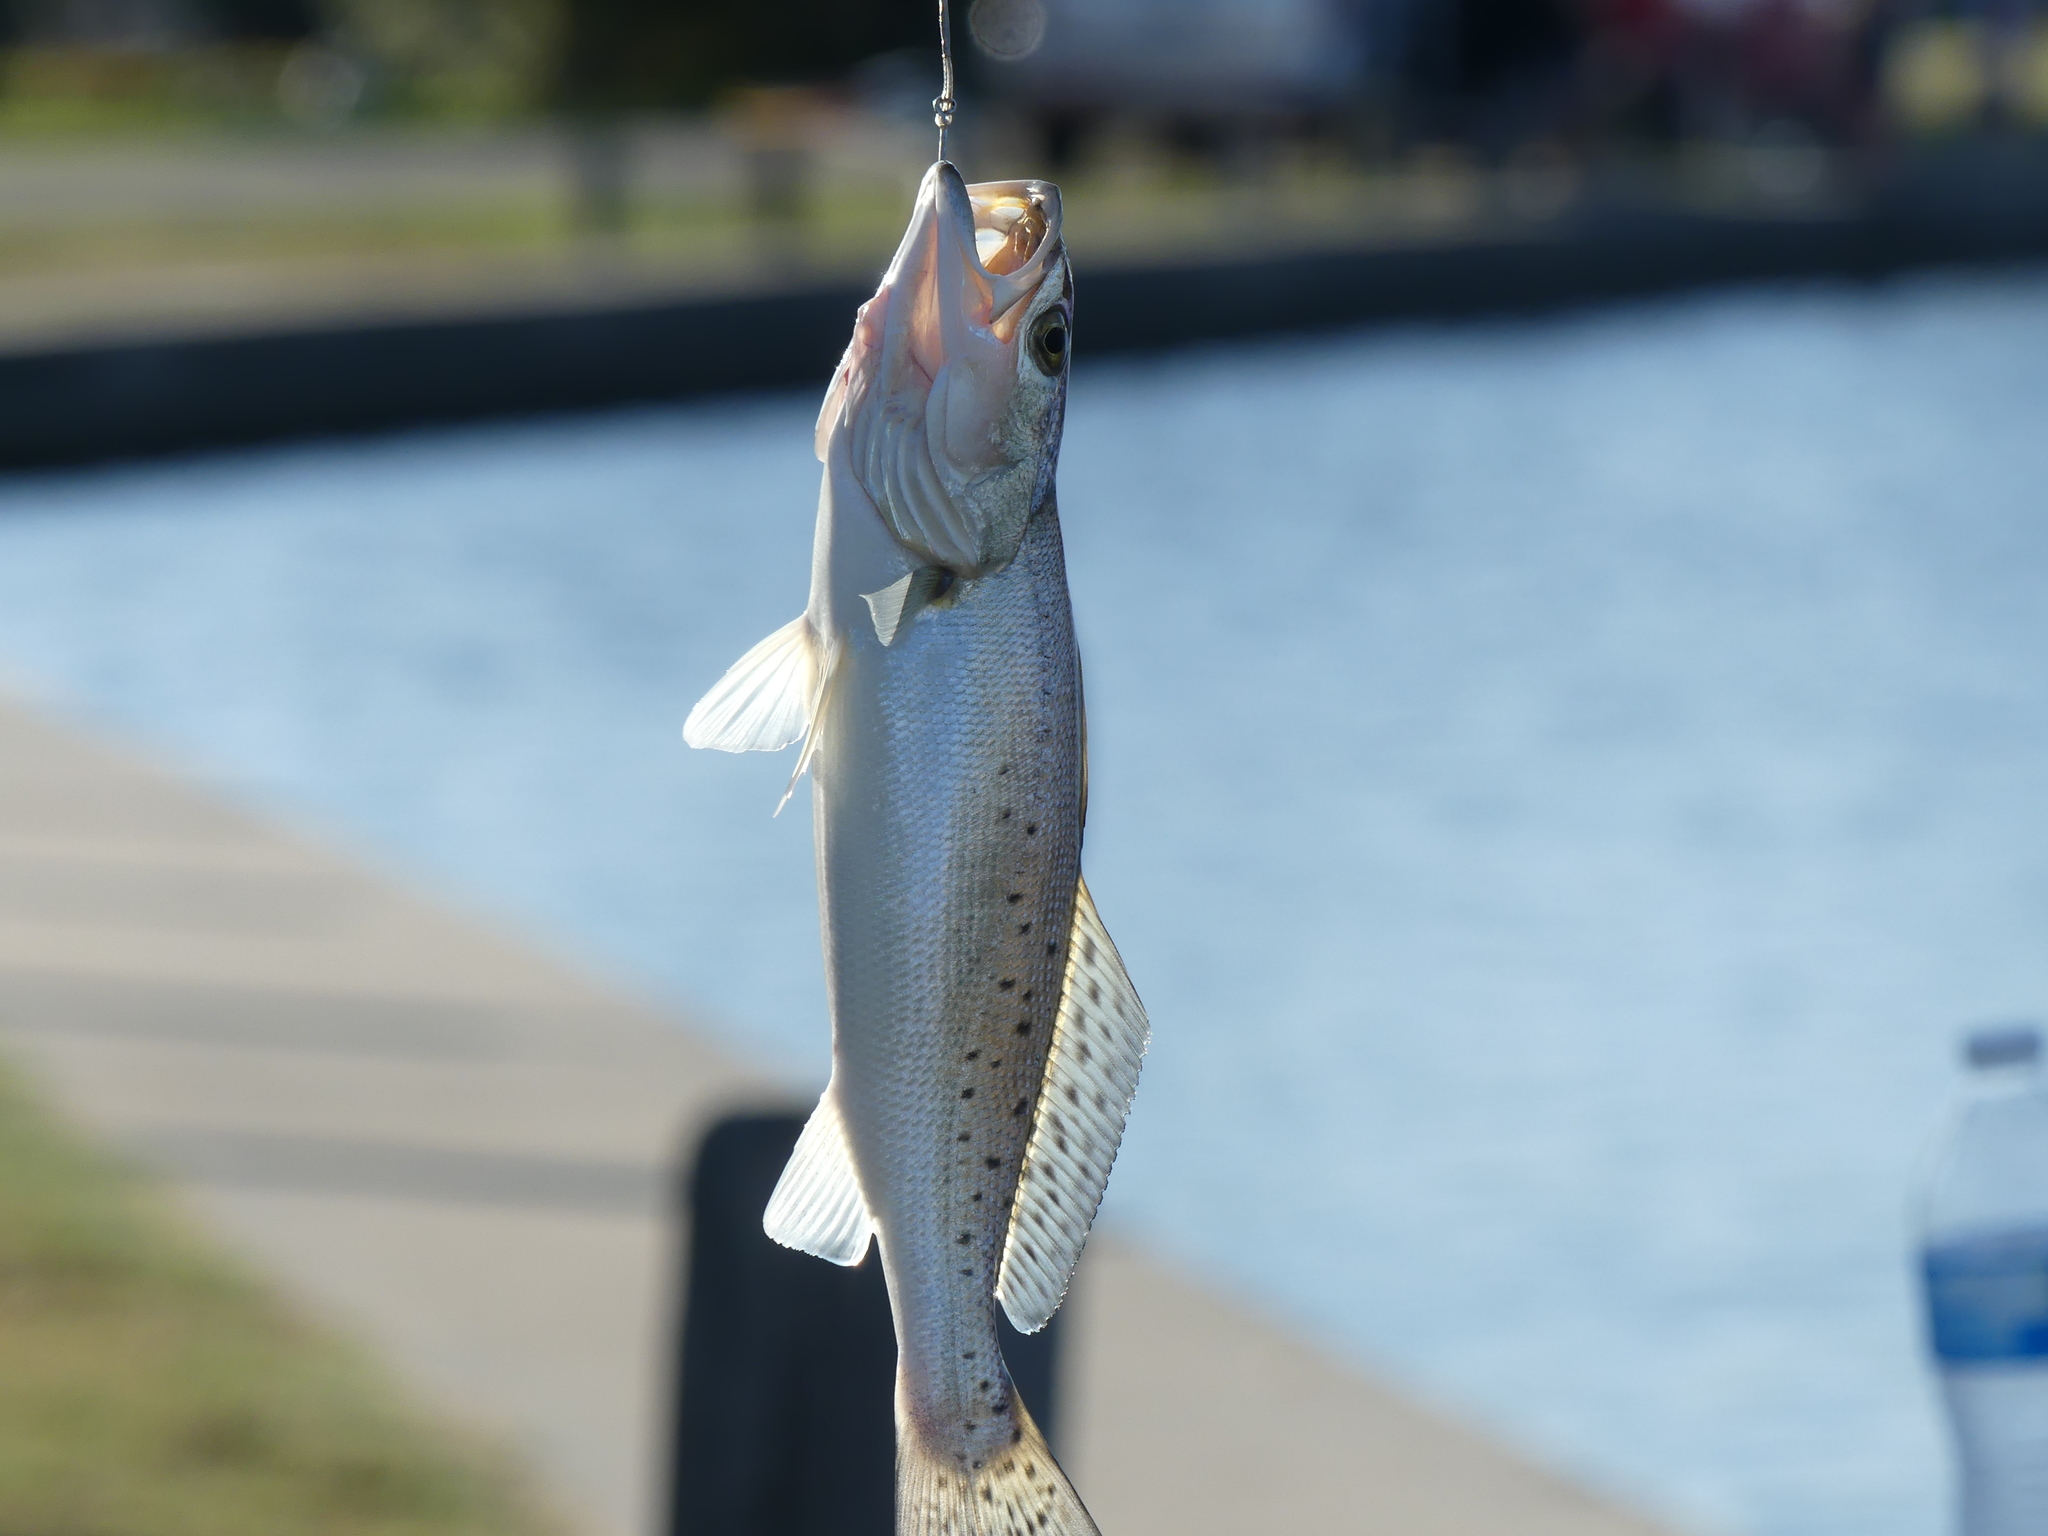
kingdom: Animalia
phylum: Chordata
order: Perciformes
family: Sciaenidae
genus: Cynoscion
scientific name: Cynoscion nebulosus
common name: Spotted seatrout
